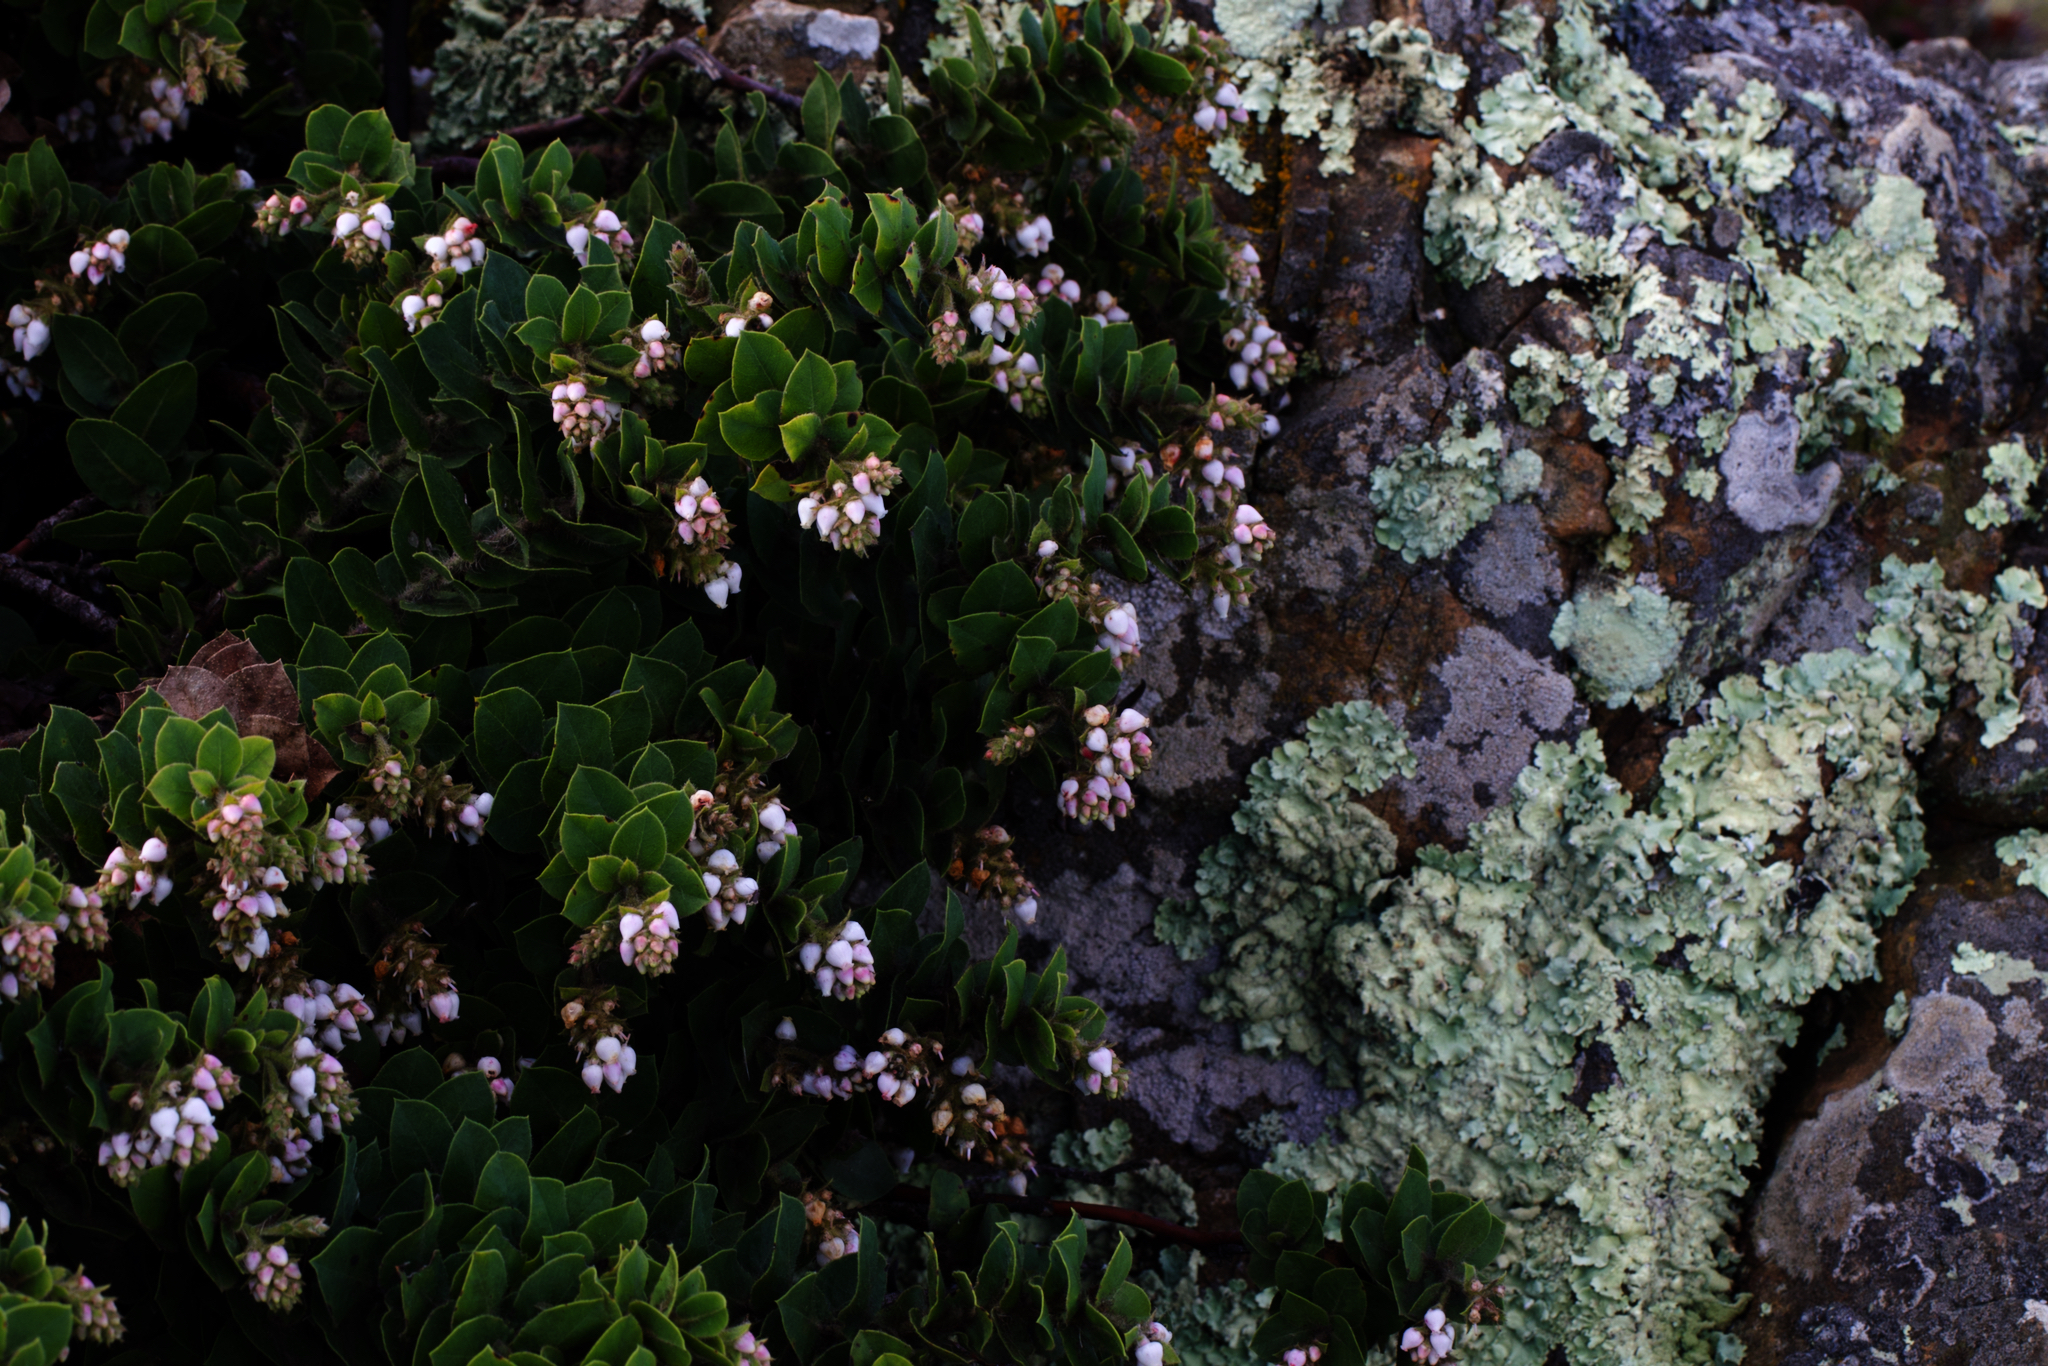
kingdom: Plantae
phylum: Tracheophyta
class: Magnoliopsida
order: Ericales
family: Ericaceae
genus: Arctostaphylos
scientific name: Arctostaphylos imbricata
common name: San bruno mountain manzanita
